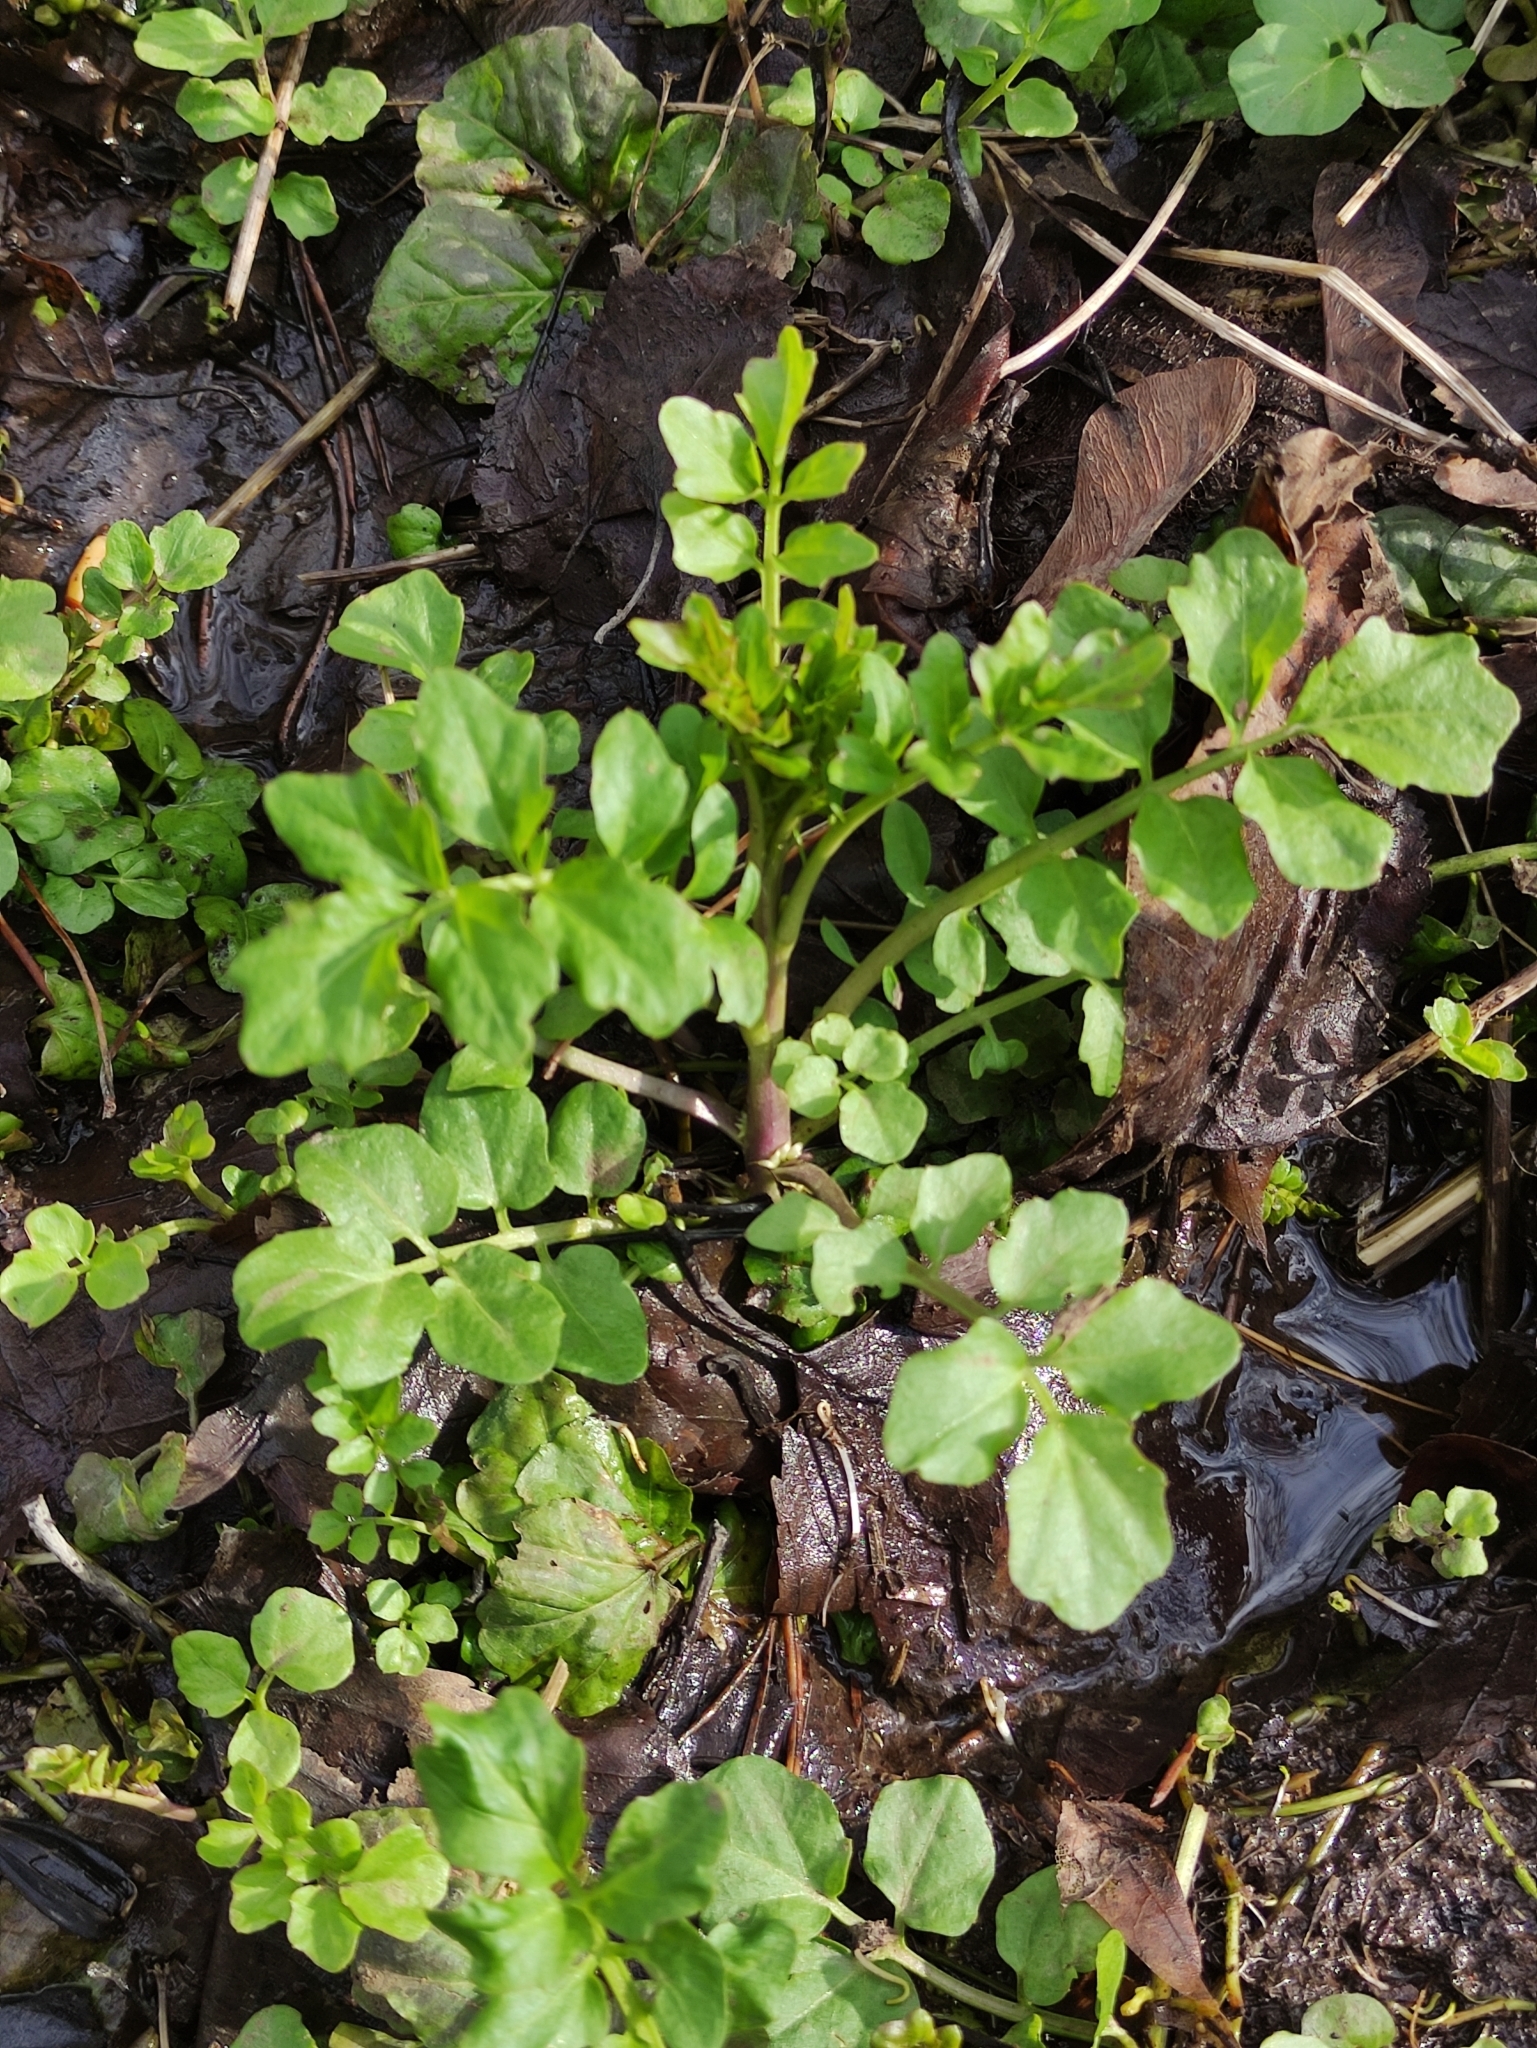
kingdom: Plantae
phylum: Tracheophyta
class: Magnoliopsida
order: Brassicales
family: Brassicaceae
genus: Cardamine
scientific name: Cardamine amara
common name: Large bitter-cress
